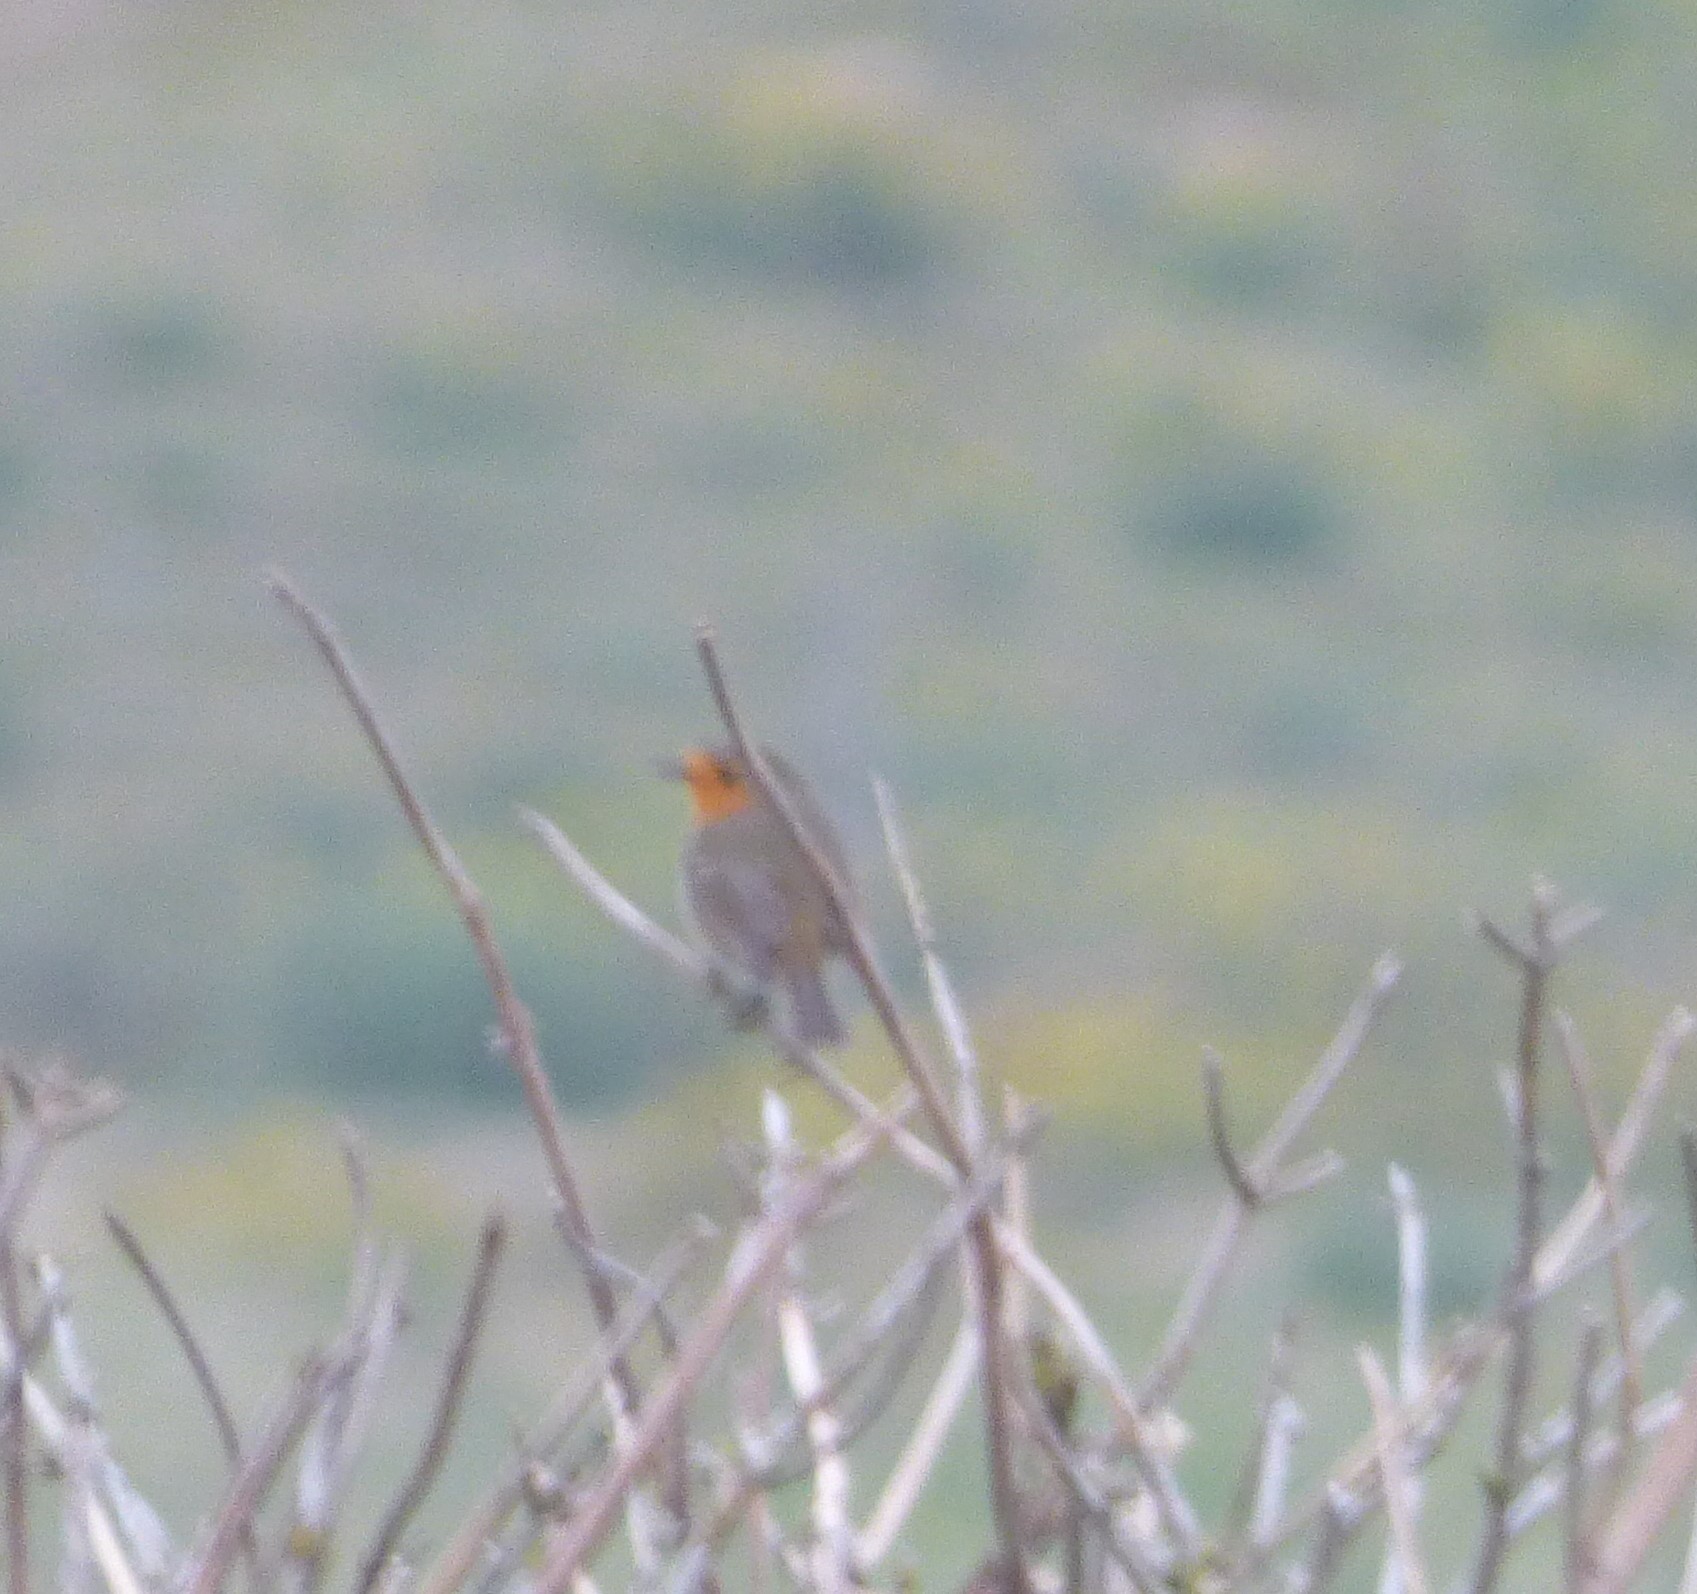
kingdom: Animalia
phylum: Chordata
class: Aves
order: Passeriformes
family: Muscicapidae
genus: Erithacus
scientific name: Erithacus rubecula
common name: European robin
